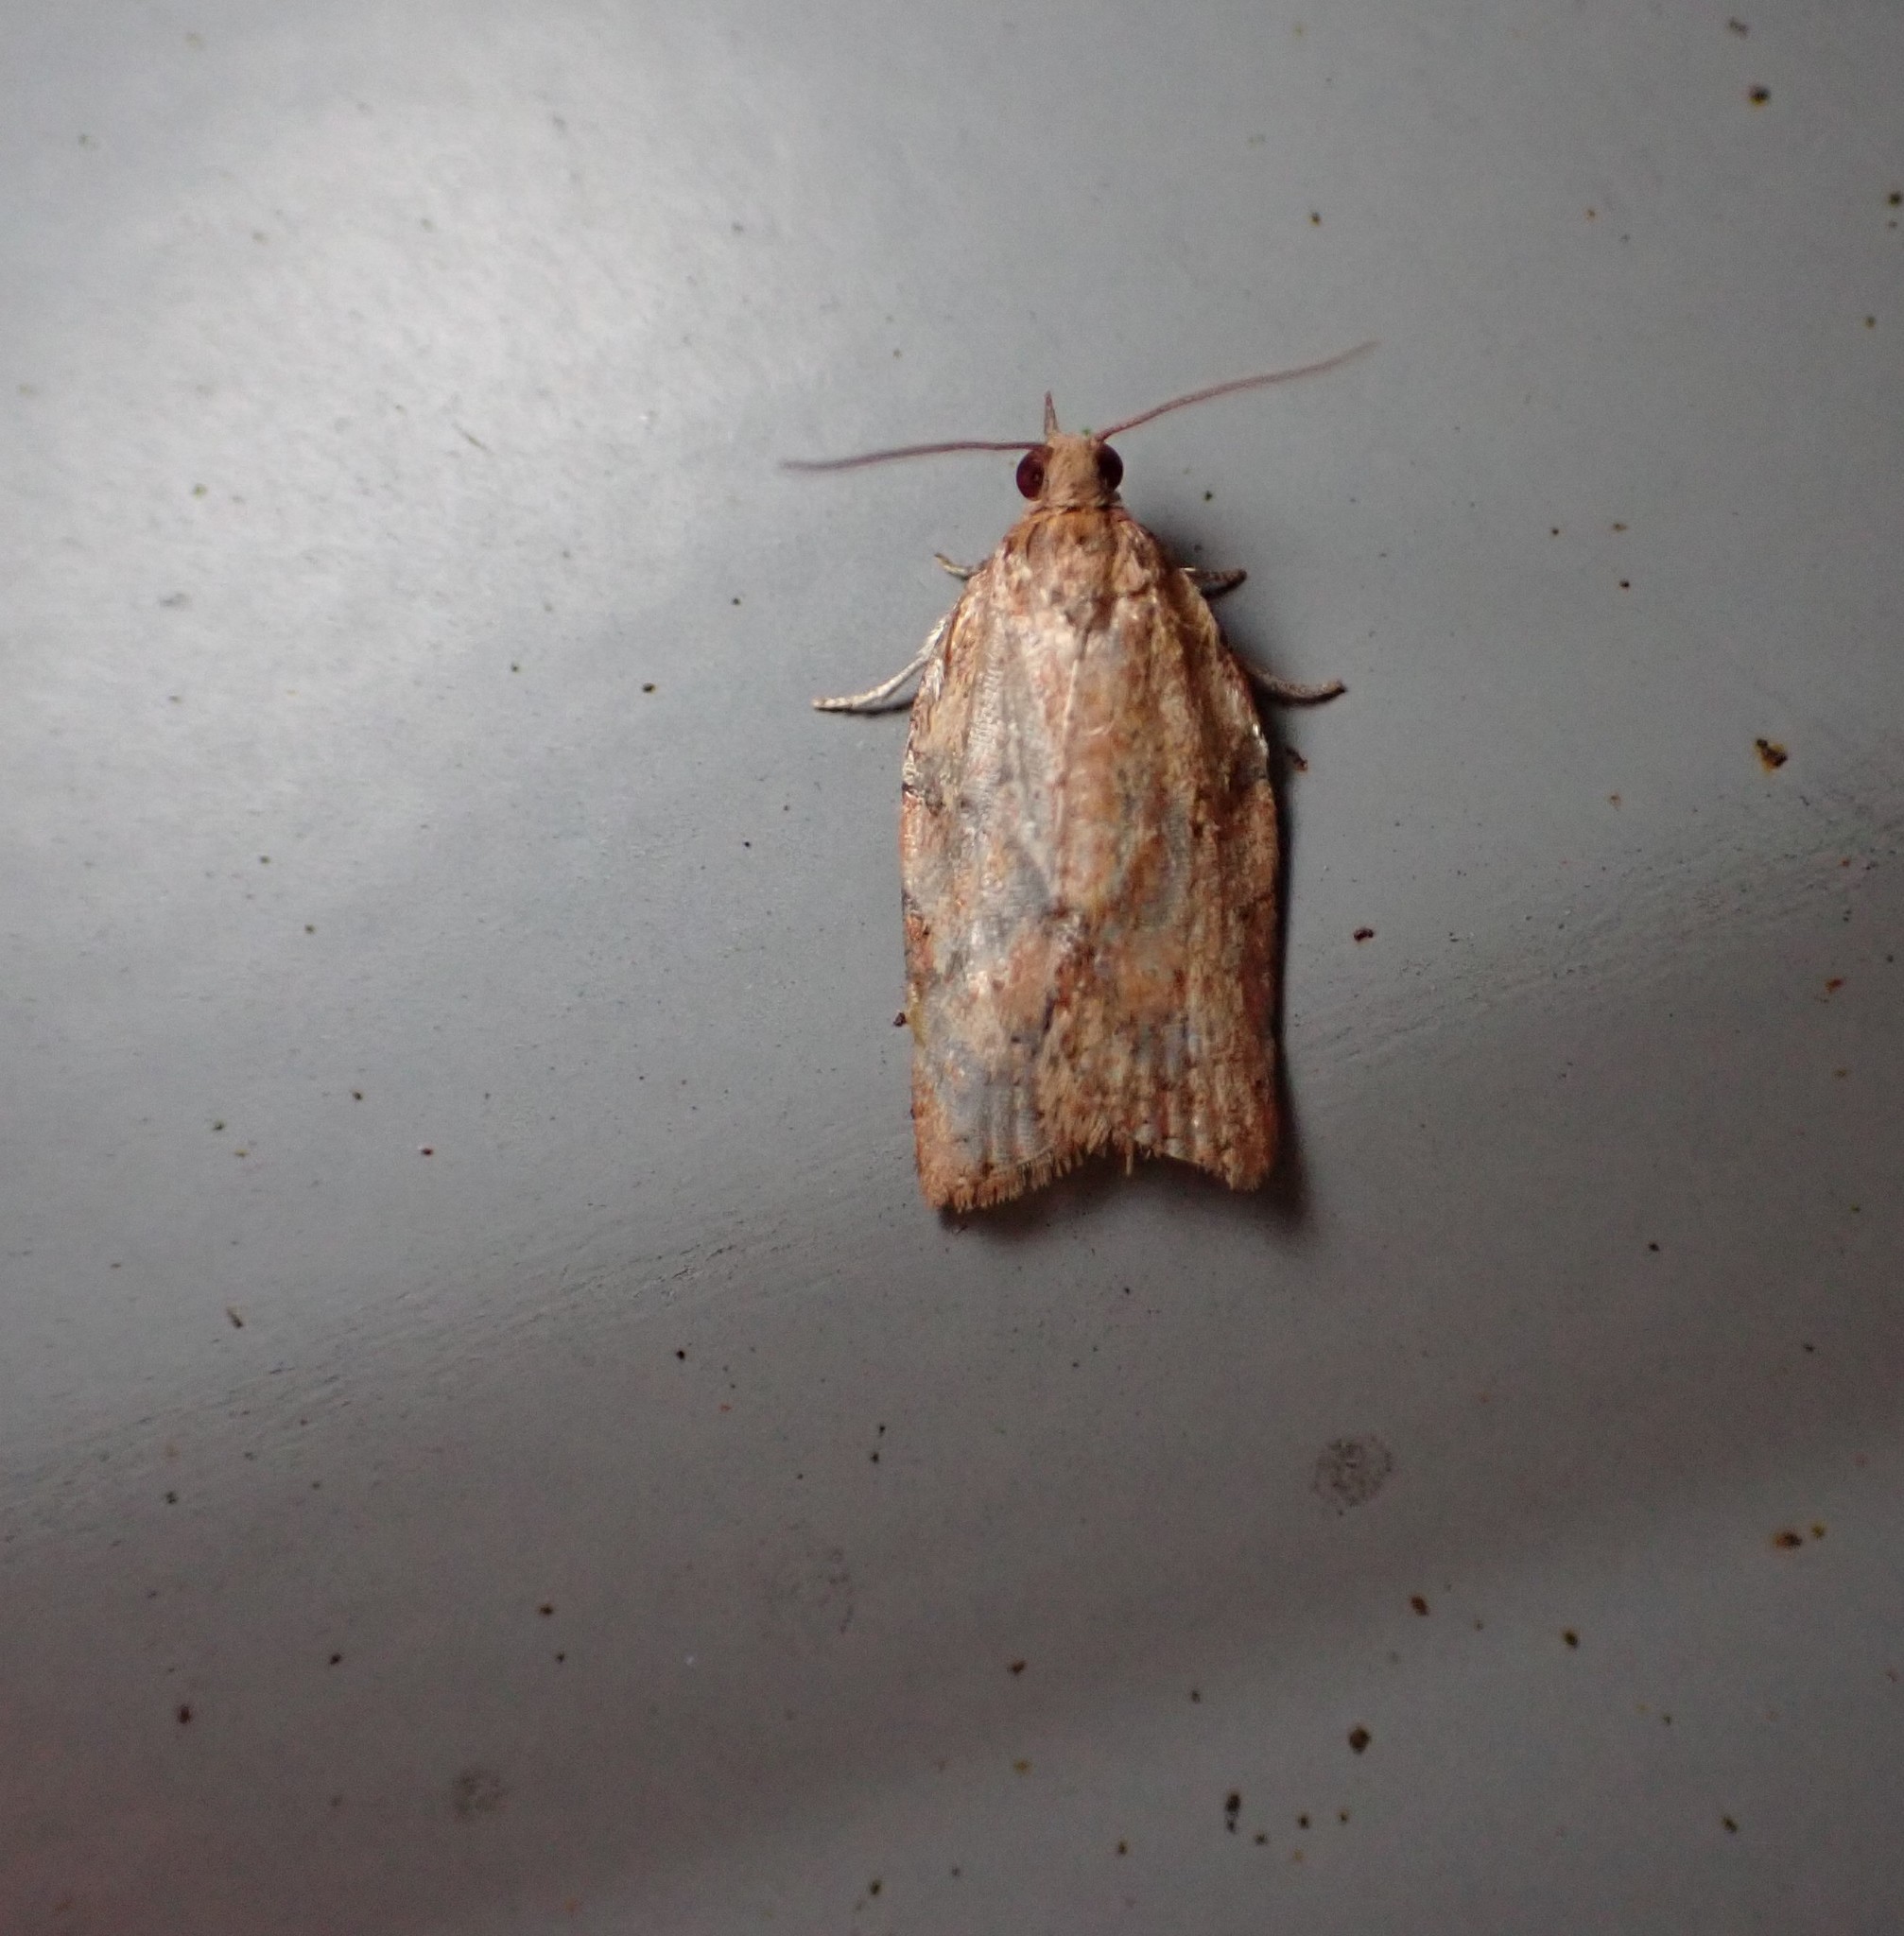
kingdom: Animalia
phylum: Arthropoda
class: Insecta
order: Lepidoptera
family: Tortricidae
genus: Epiphyas
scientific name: Epiphyas postvittana
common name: Light brown apple moth
